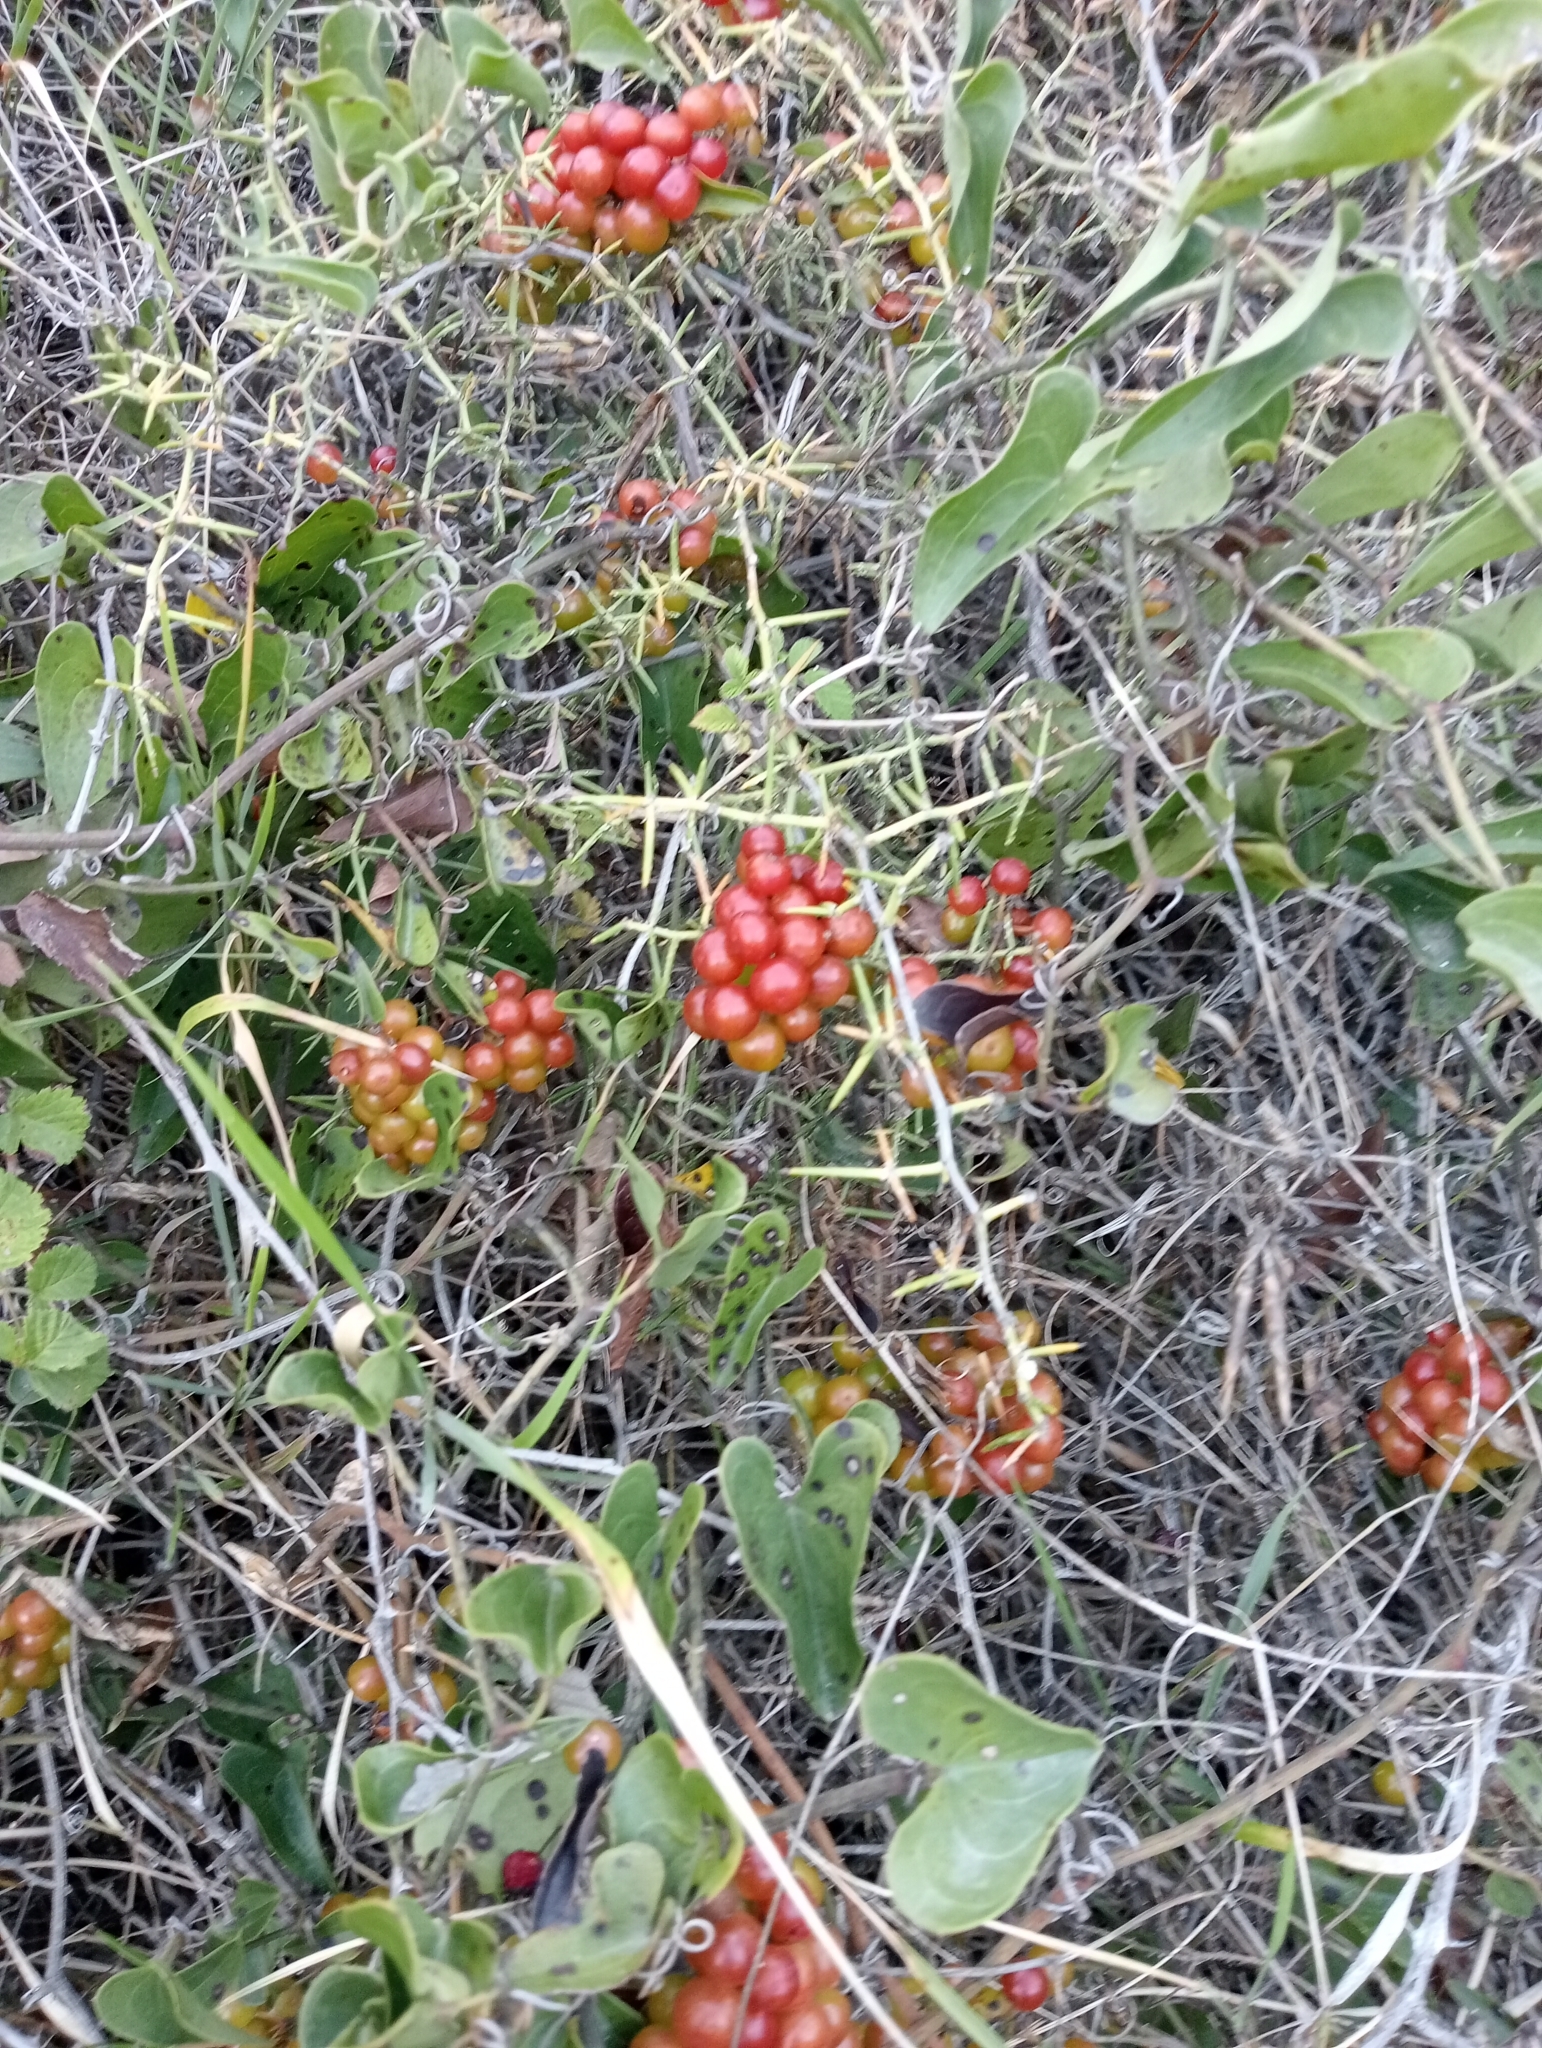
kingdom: Plantae
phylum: Tracheophyta
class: Liliopsida
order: Liliales
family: Smilacaceae
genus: Smilax
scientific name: Smilax aspera
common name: Common smilax
